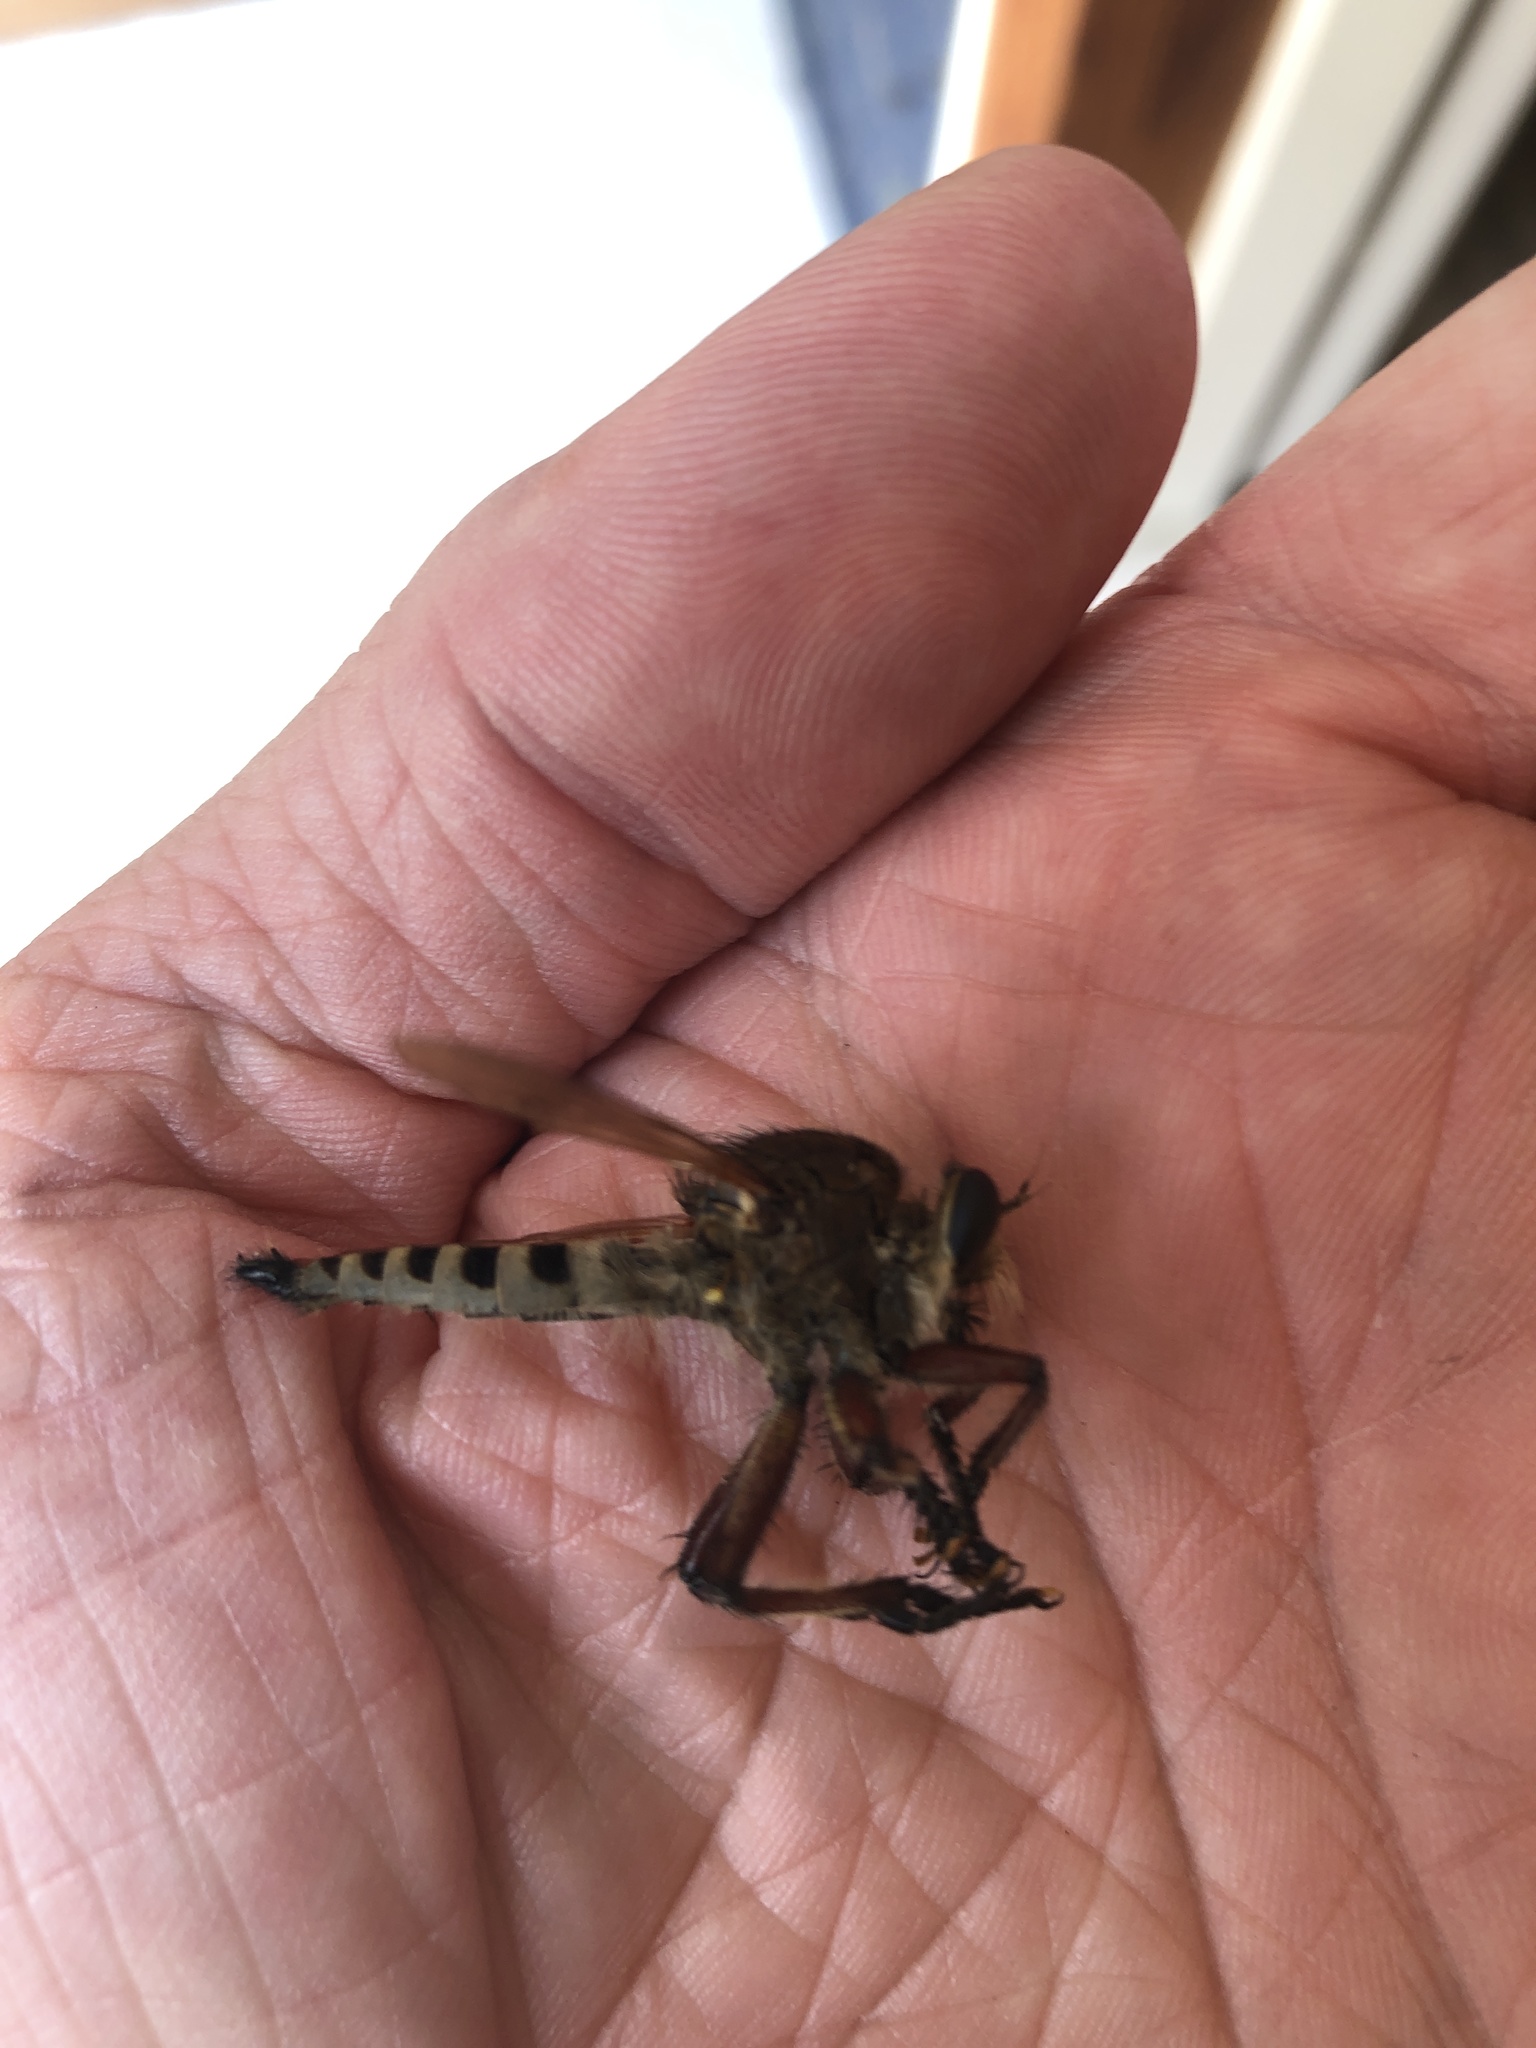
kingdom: Animalia
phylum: Arthropoda
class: Insecta
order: Diptera
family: Asilidae
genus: Promachus
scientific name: Promachus hinei
